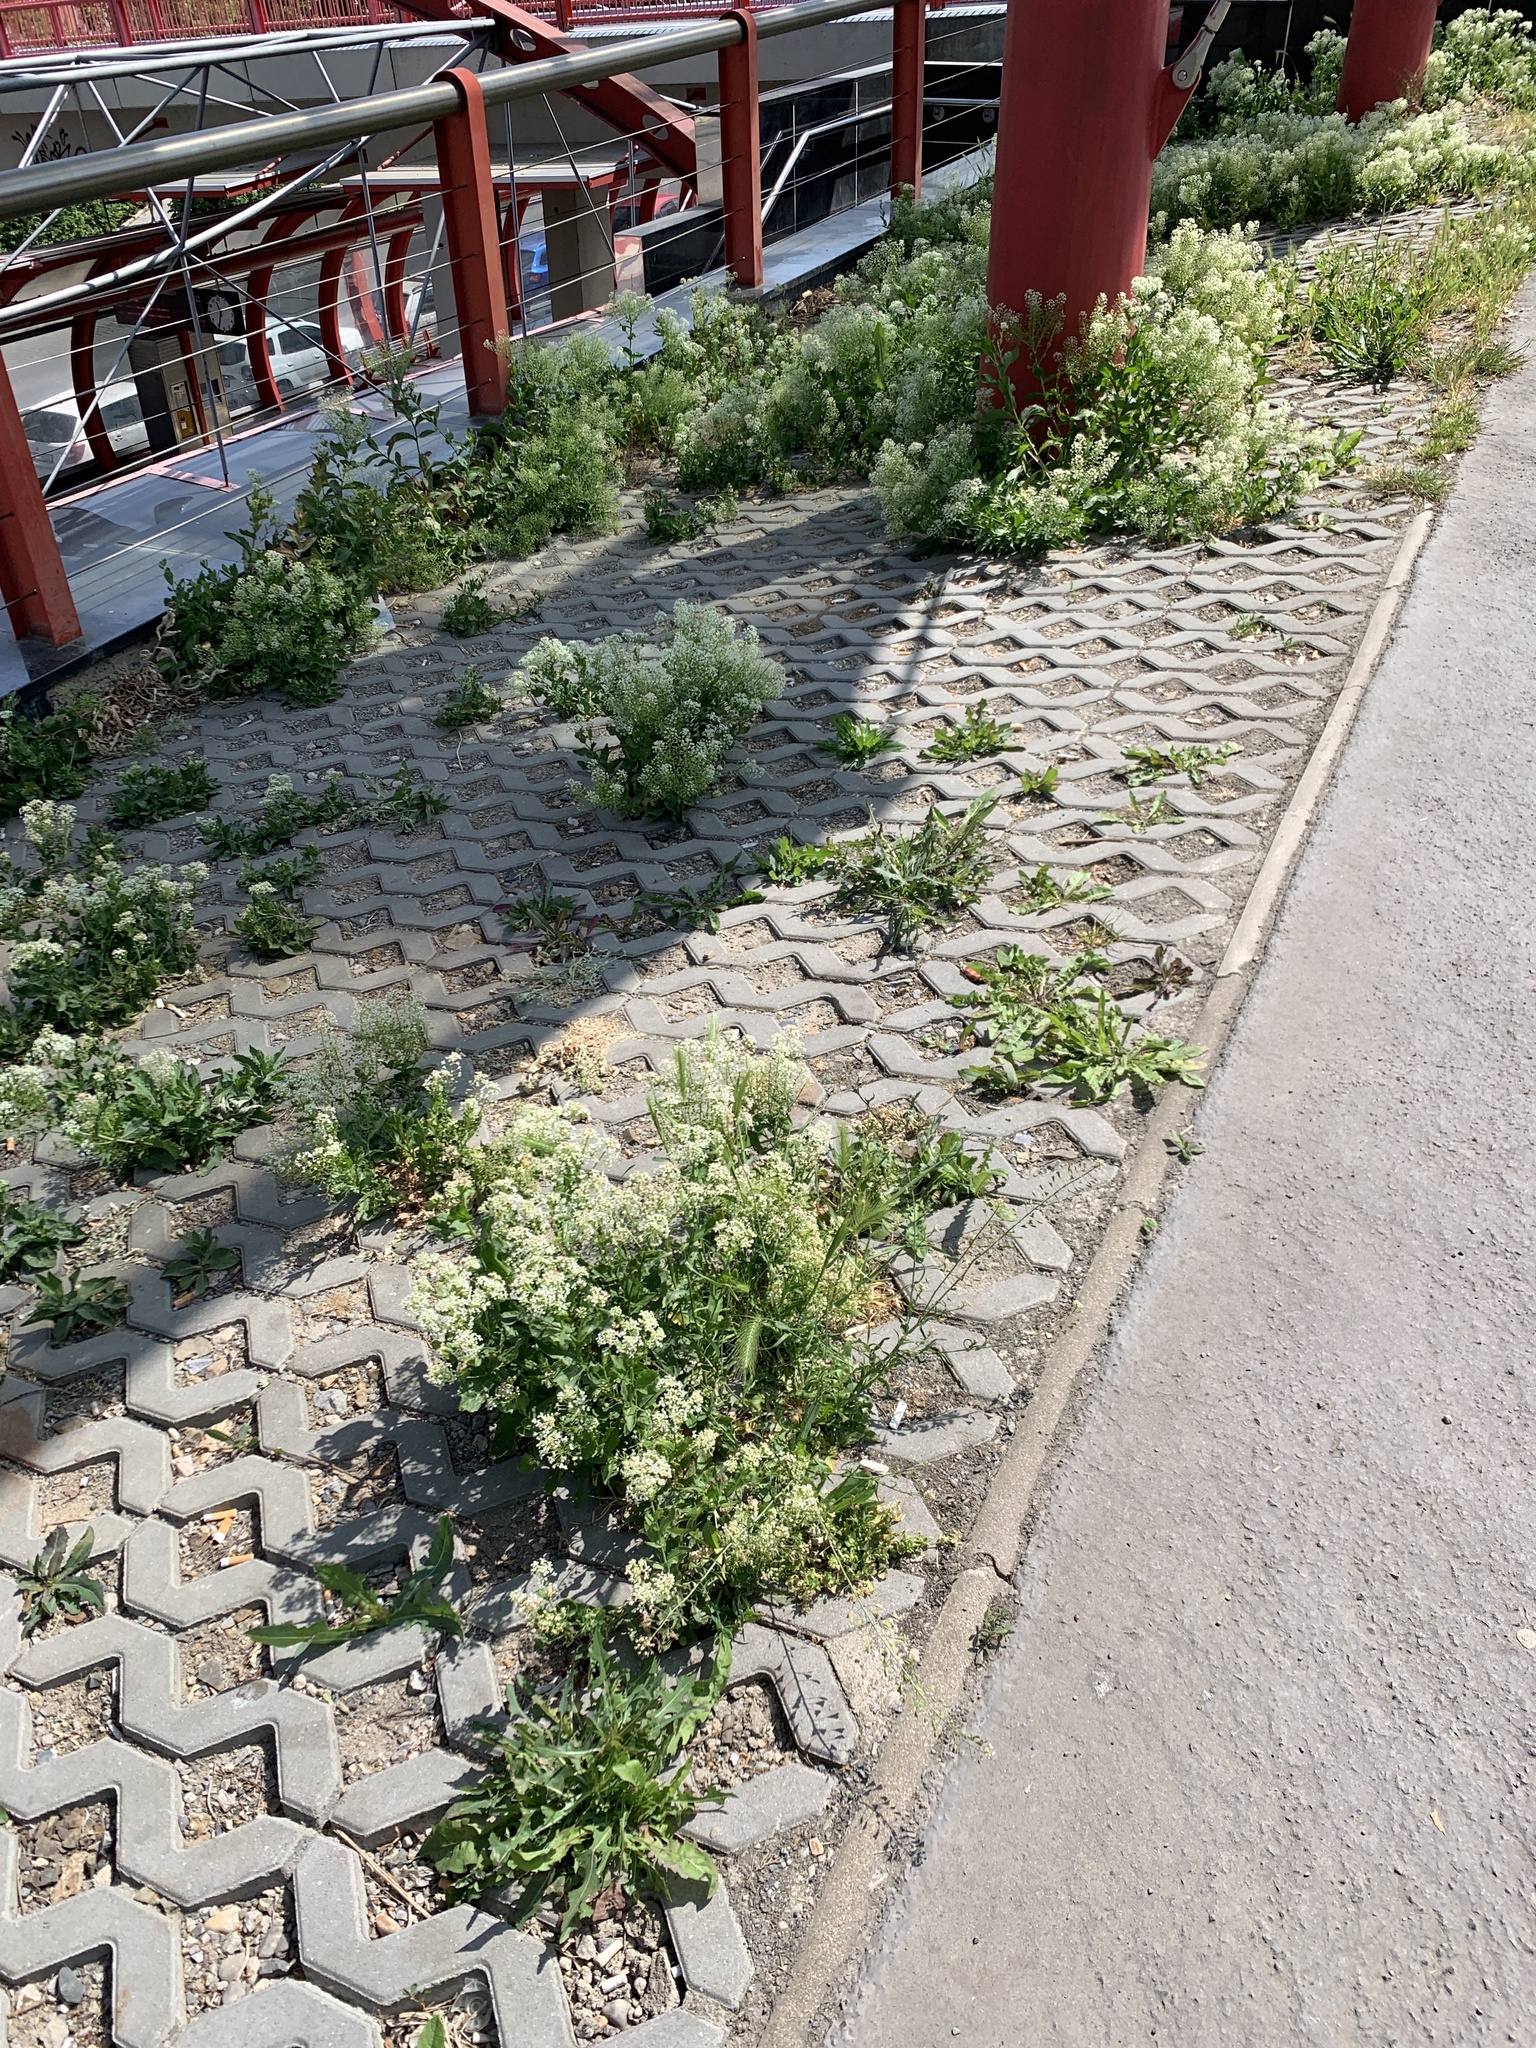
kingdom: Plantae
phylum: Tracheophyta
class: Magnoliopsida
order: Brassicales
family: Brassicaceae
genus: Lepidium
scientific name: Lepidium draba
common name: Hoary cress
